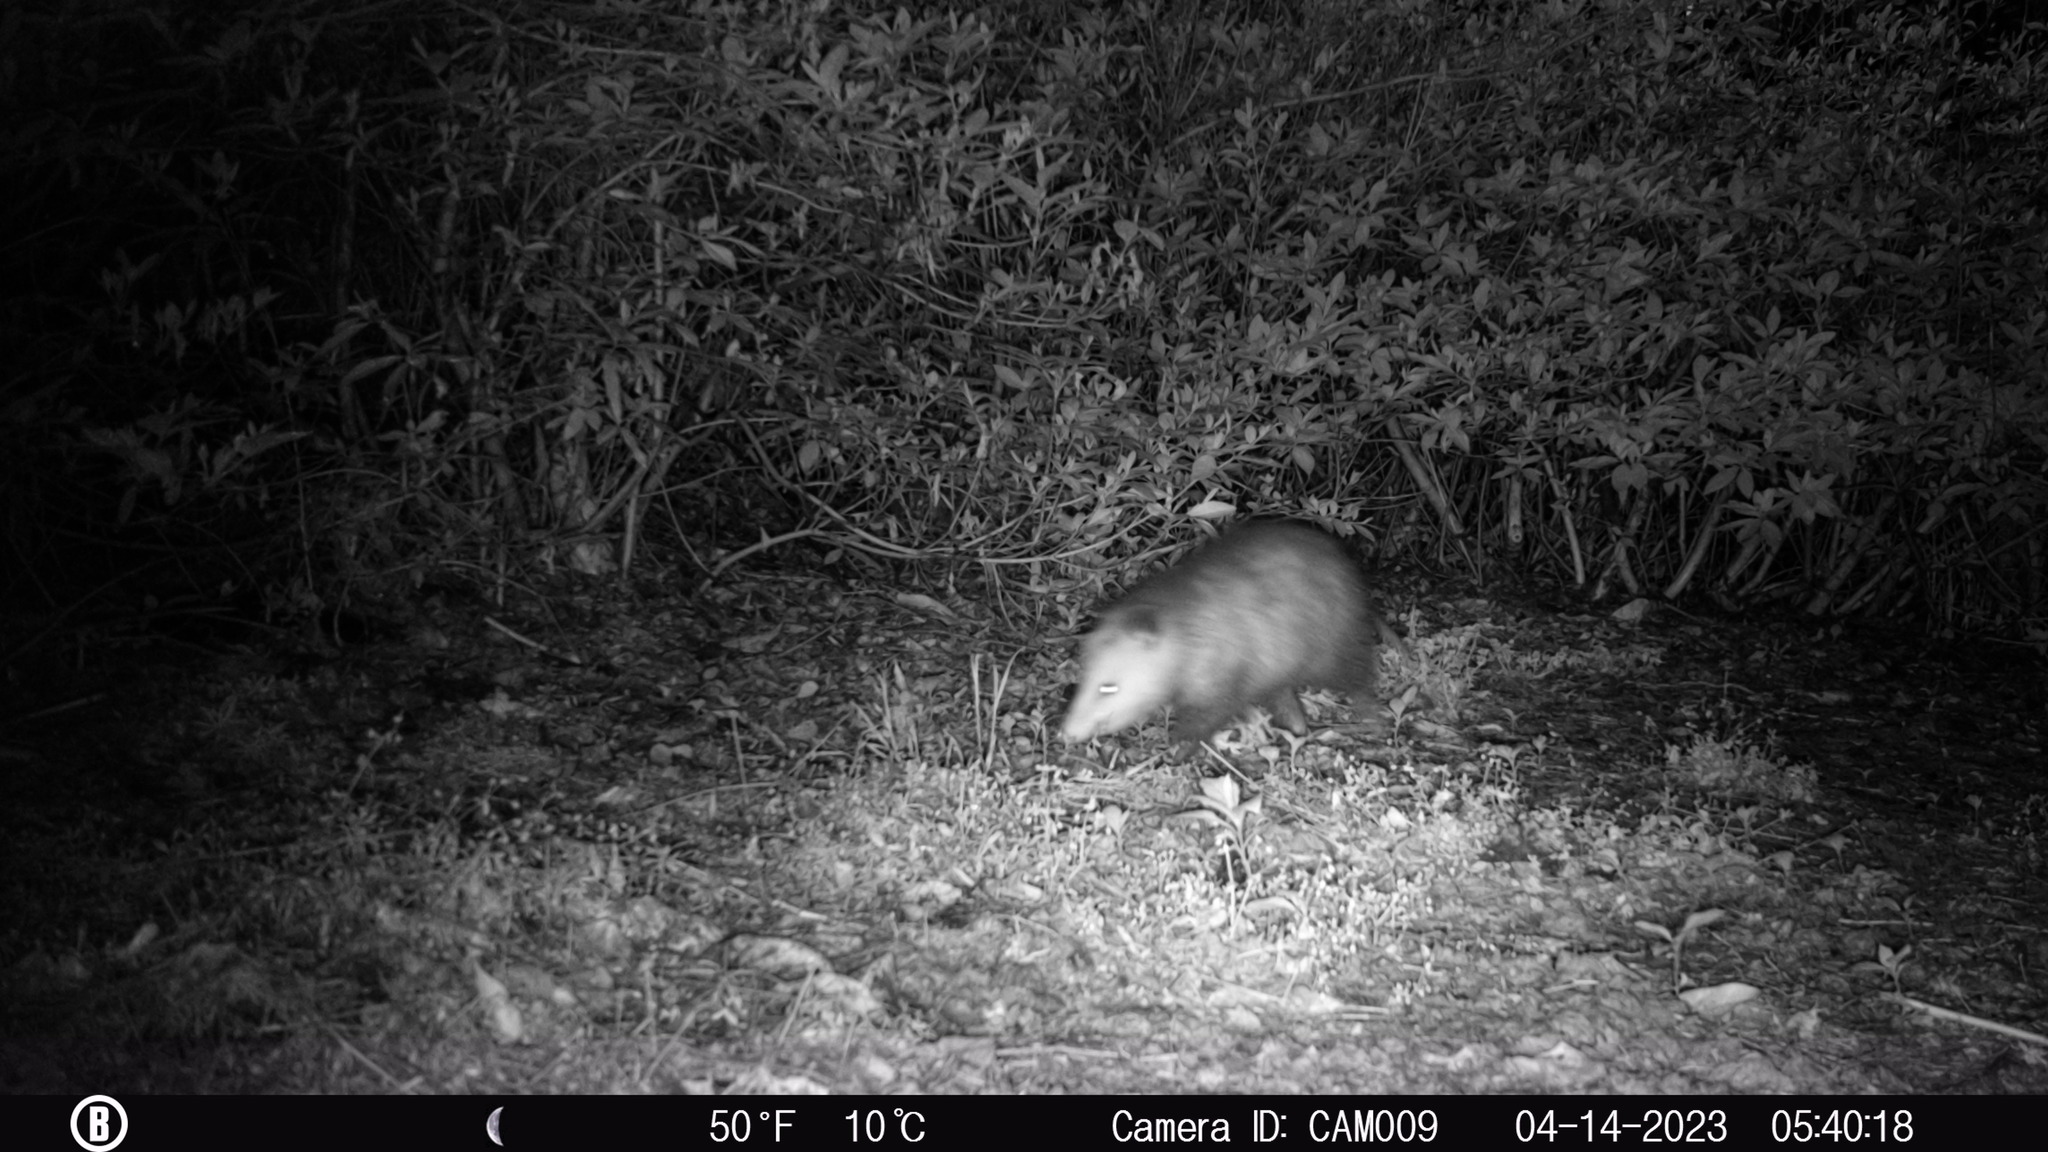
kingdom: Animalia
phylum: Chordata
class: Mammalia
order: Didelphimorphia
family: Didelphidae
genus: Didelphis
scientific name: Didelphis virginiana
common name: Virginia opossum
